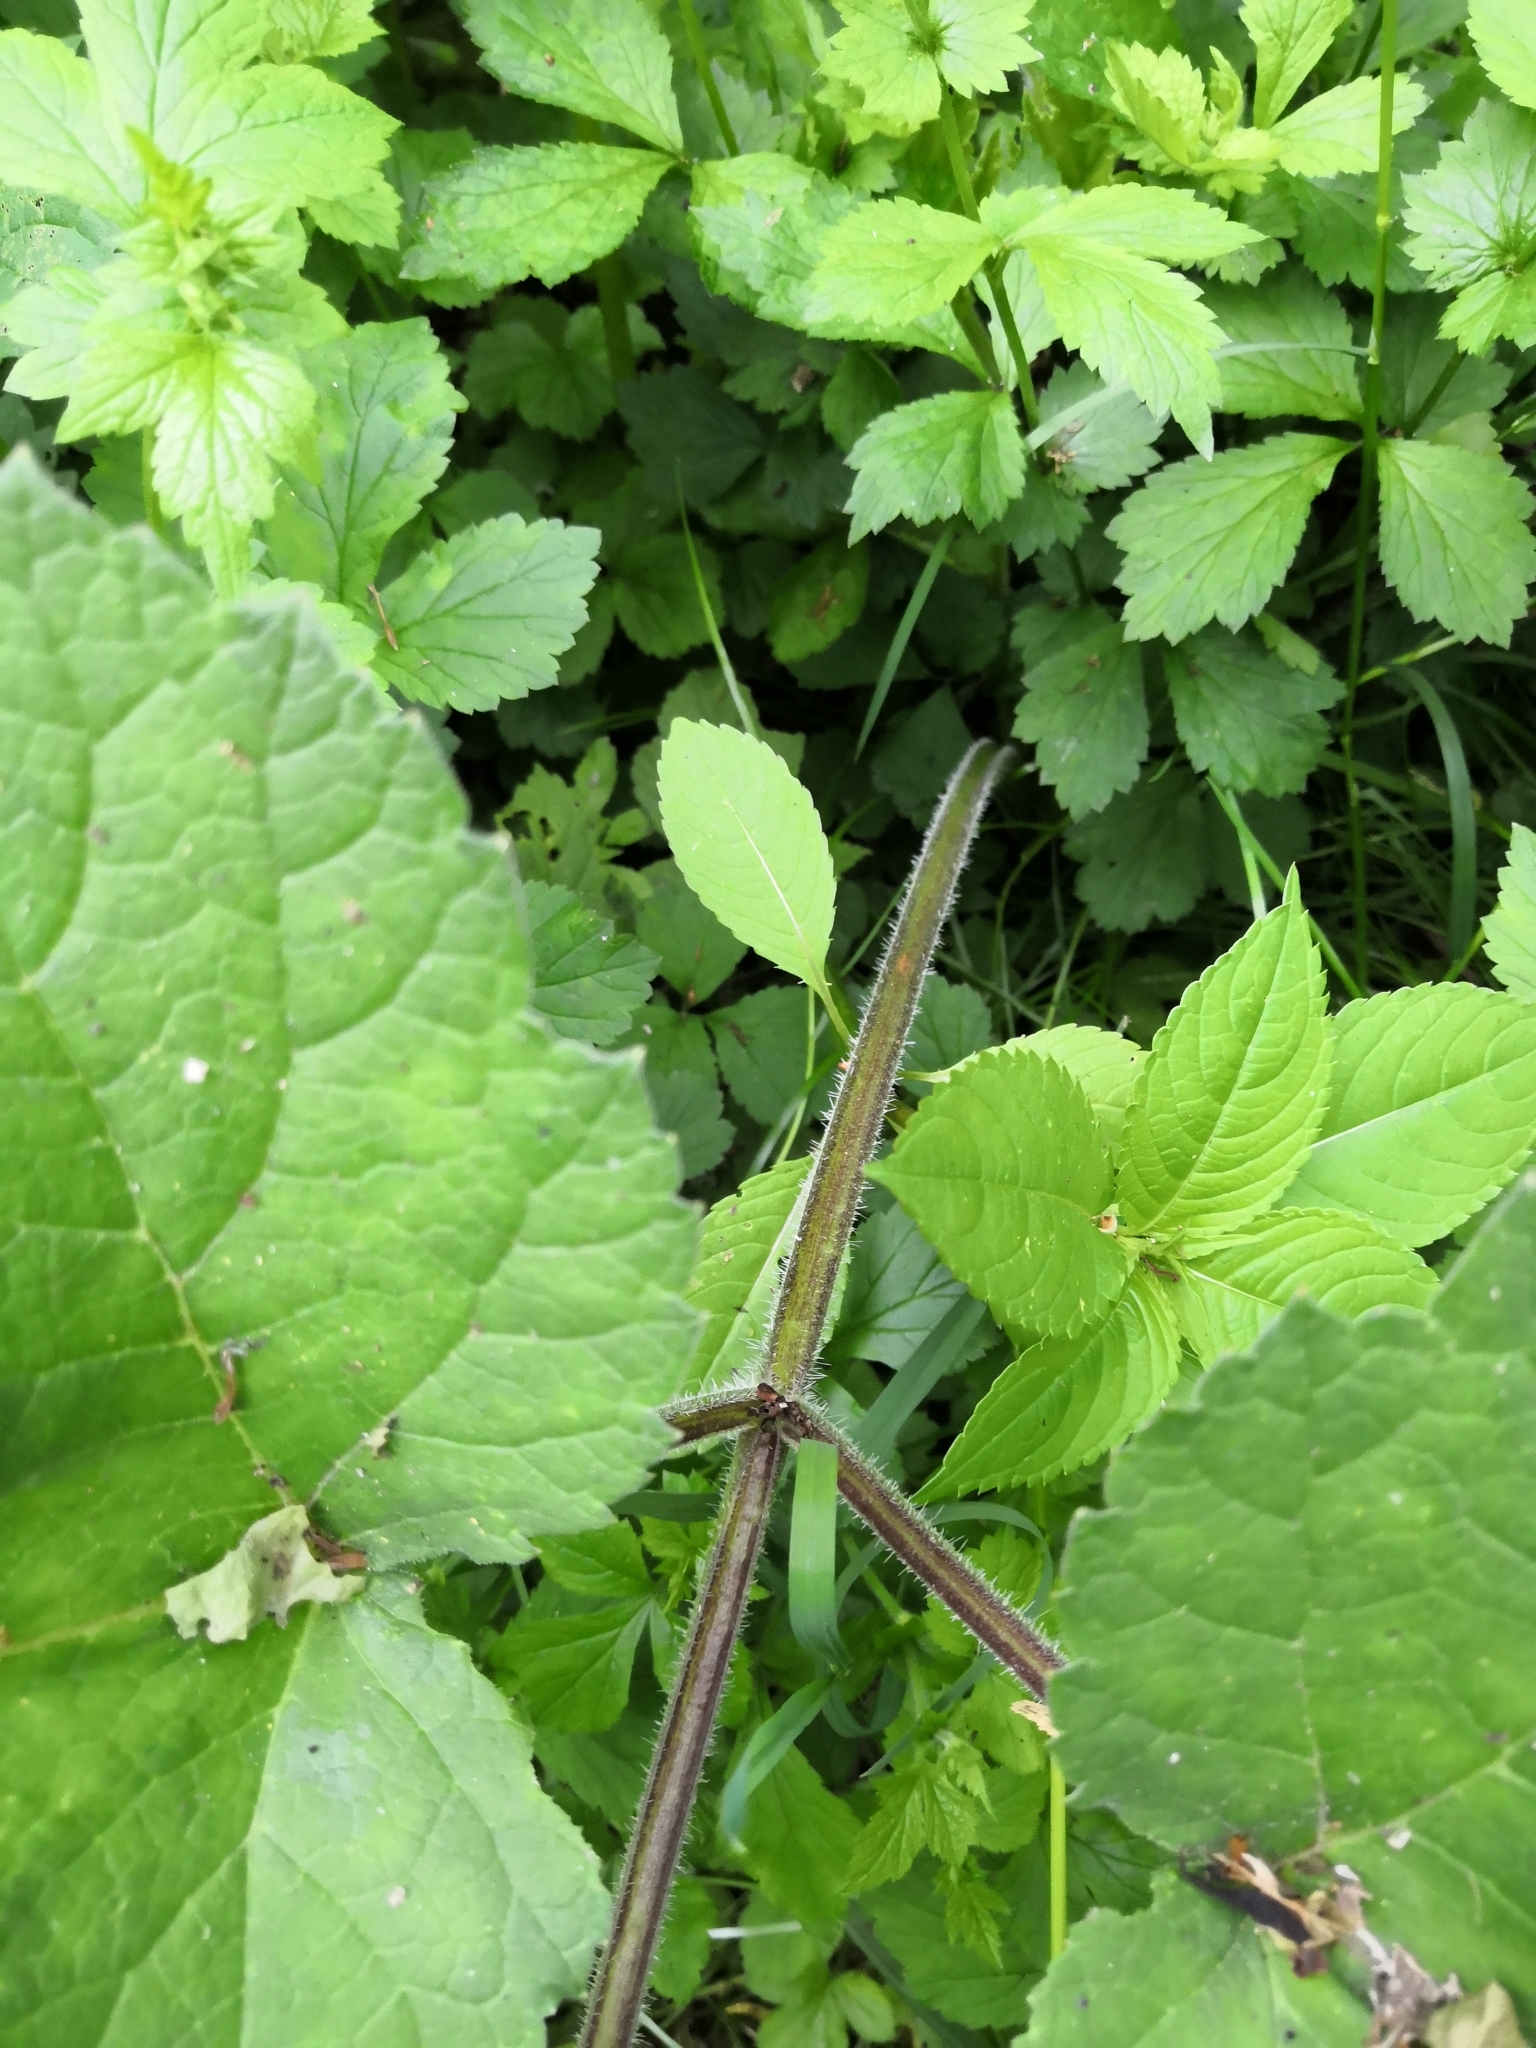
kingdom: Plantae
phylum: Tracheophyta
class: Magnoliopsida
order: Apiales
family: Apiaceae
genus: Heracleum
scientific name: Heracleum sphondylium
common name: Hogweed
